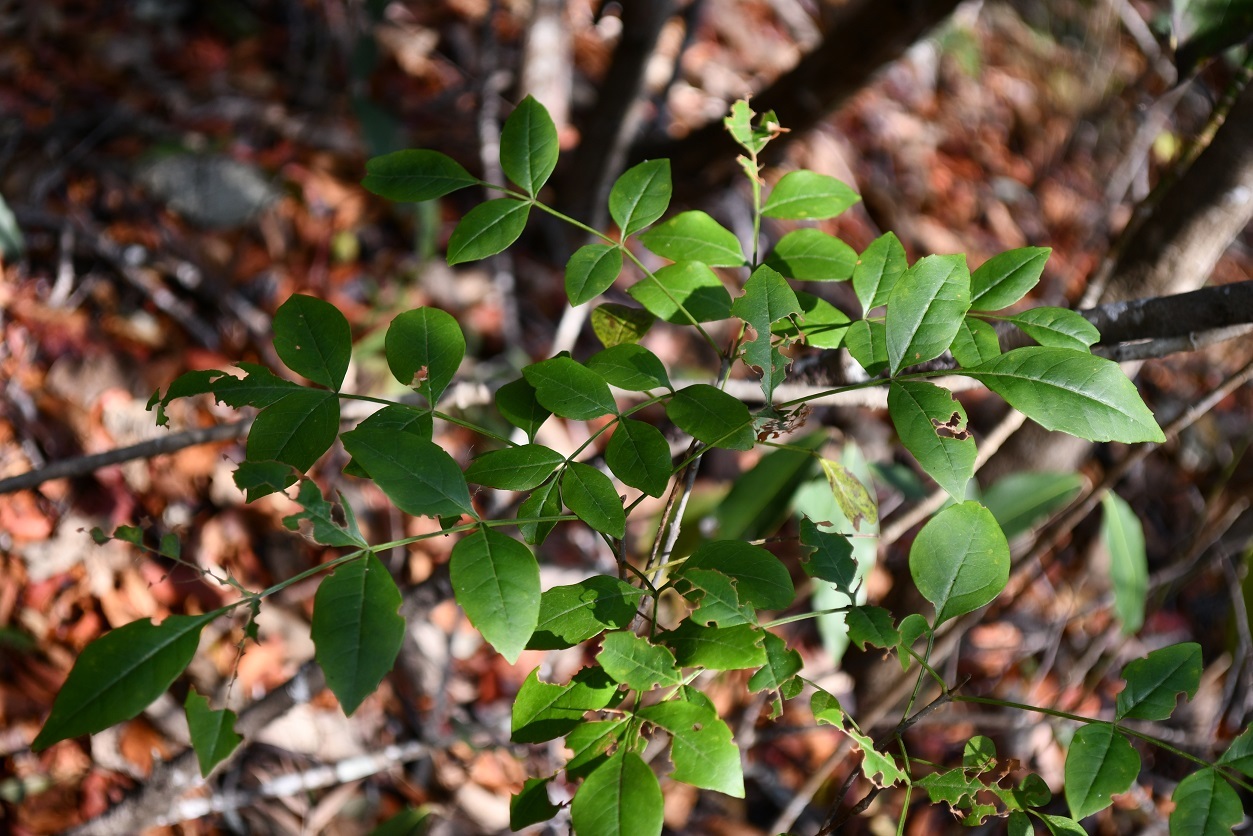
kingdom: Plantae
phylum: Tracheophyta
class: Magnoliopsida
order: Lamiales
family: Oleaceae
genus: Fraxinus
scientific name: Fraxinus purpusii
